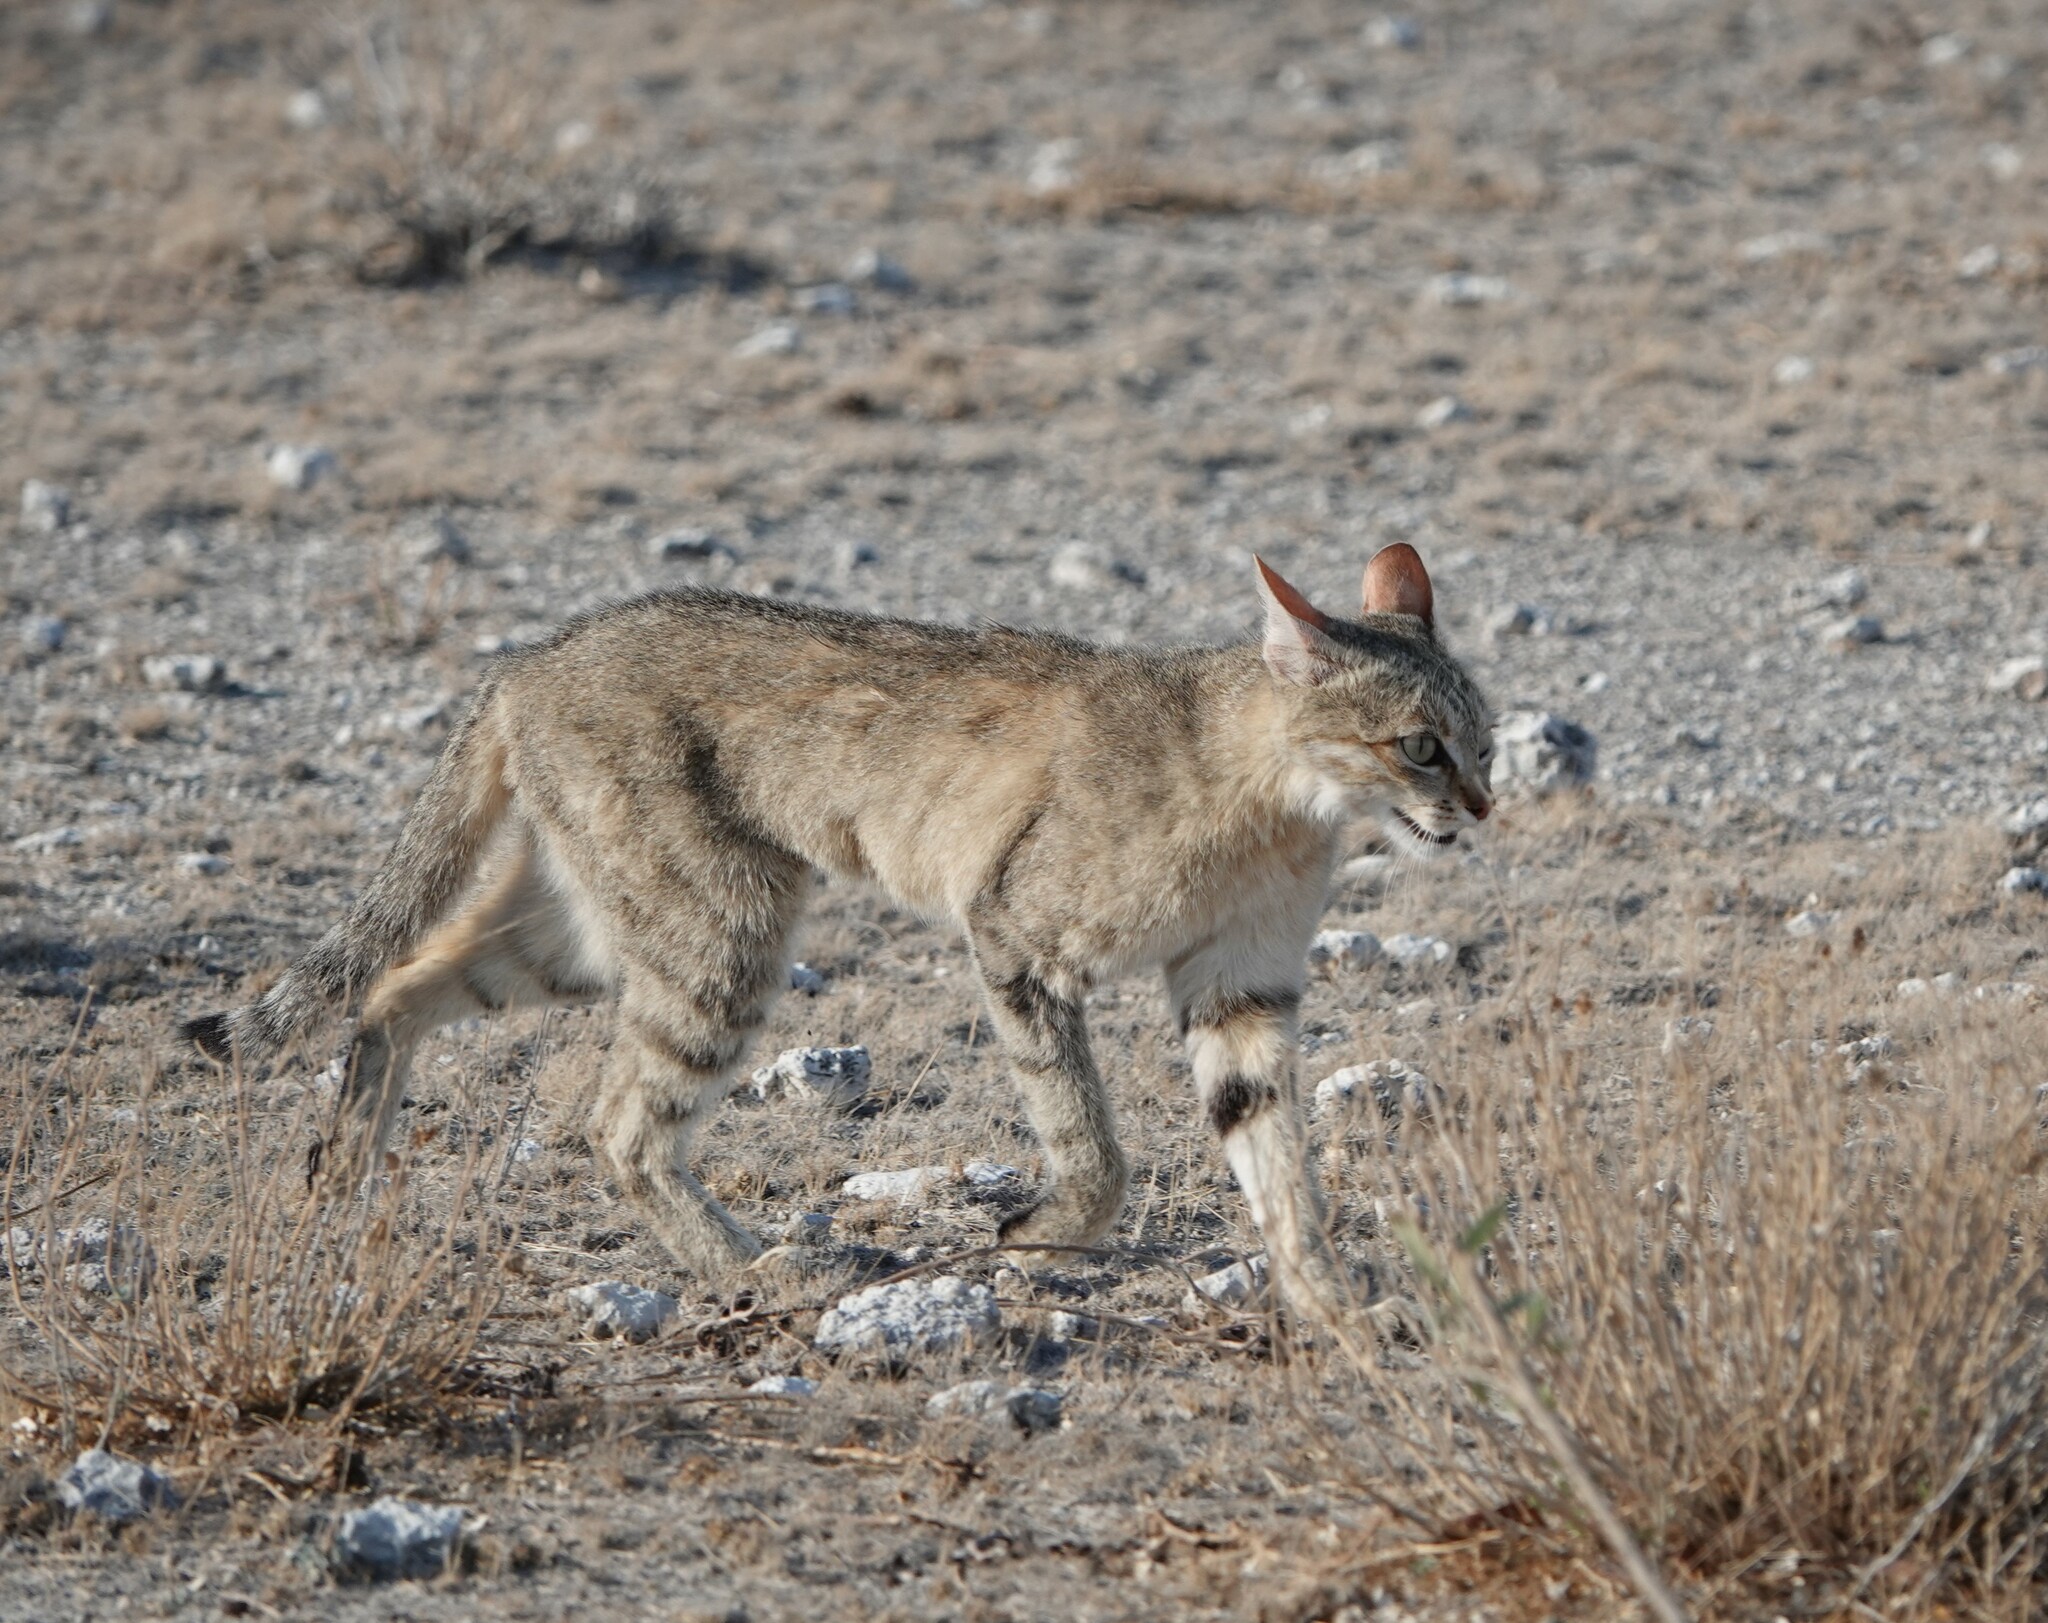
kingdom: Animalia
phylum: Chordata
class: Mammalia
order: Carnivora
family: Felidae
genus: Felis
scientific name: Felis silvestris
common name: Wildcat
